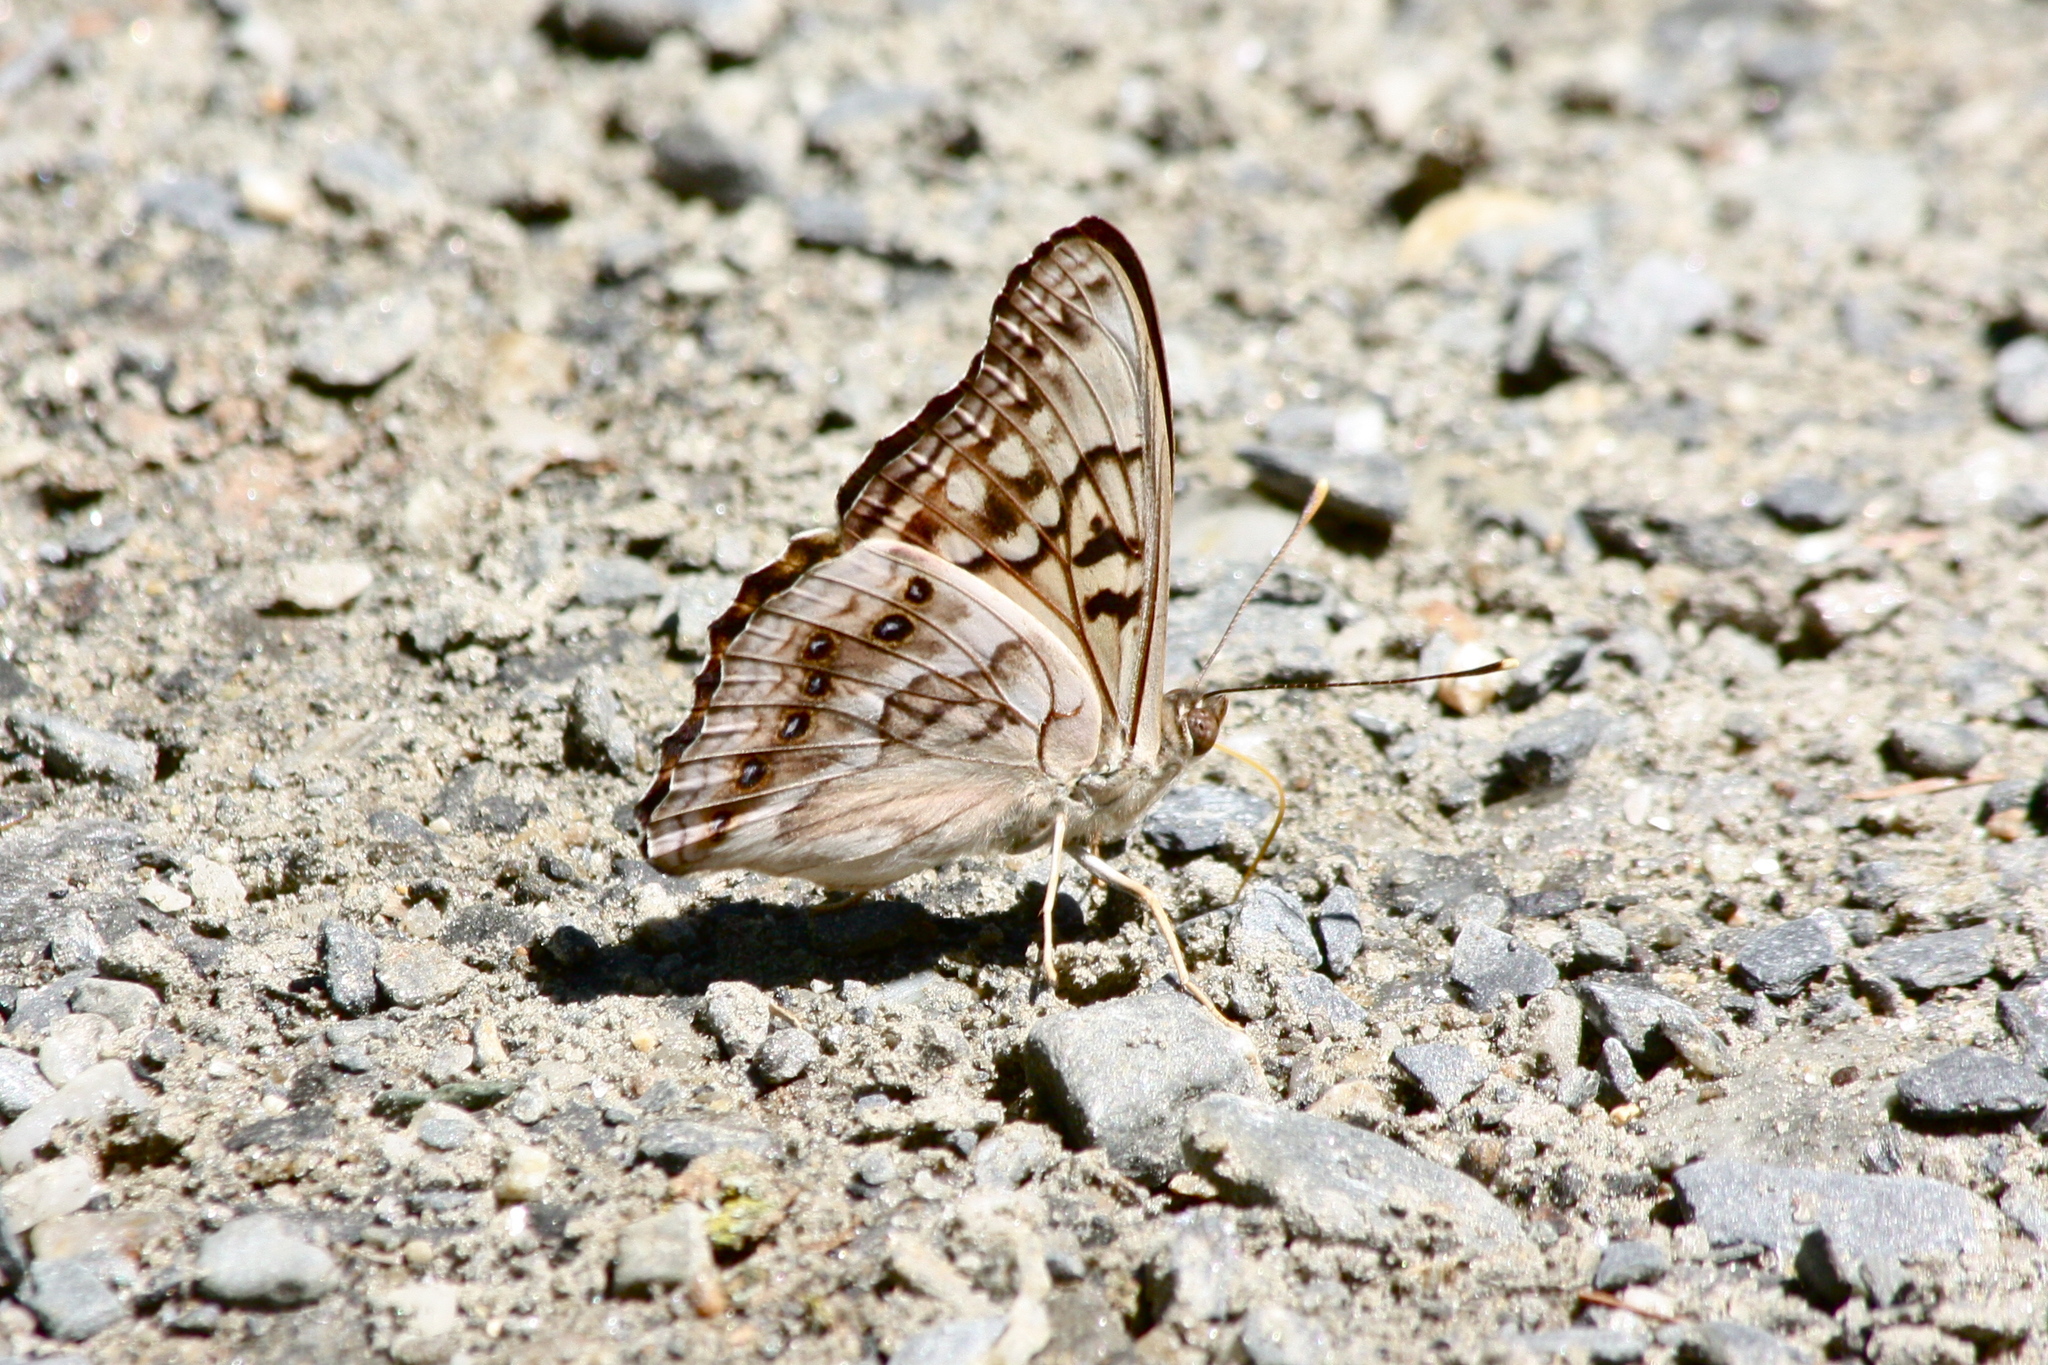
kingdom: Animalia
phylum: Arthropoda
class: Insecta
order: Lepidoptera
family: Nymphalidae
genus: Asterocampa
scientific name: Asterocampa clyton
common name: Tawny emperor
